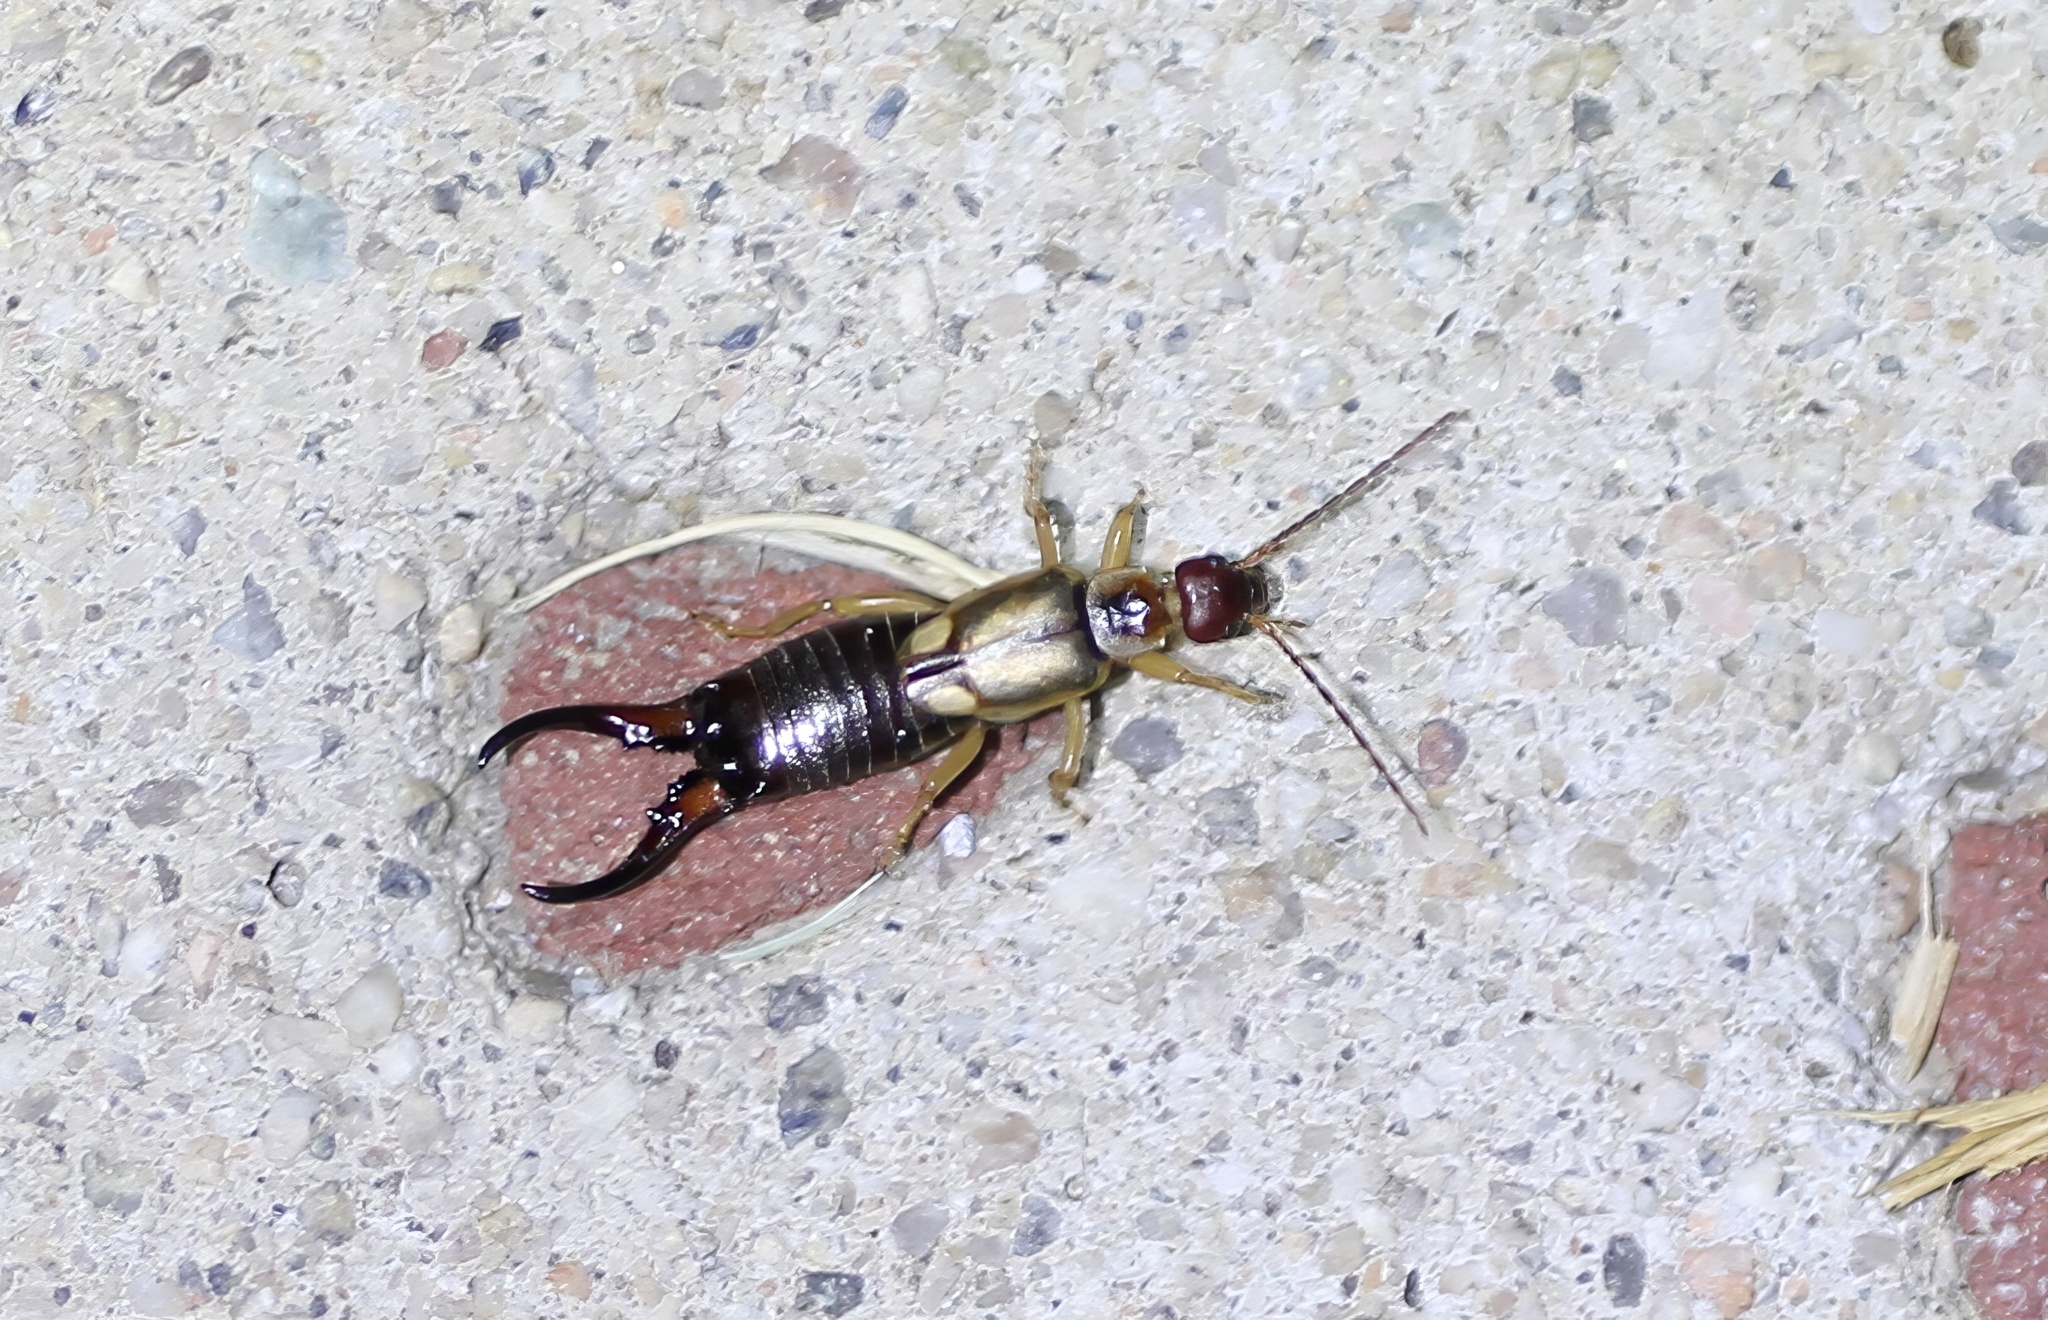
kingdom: Animalia
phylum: Arthropoda
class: Insecta
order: Dermaptera
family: Forficulidae
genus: Forficula
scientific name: Forficula dentata
